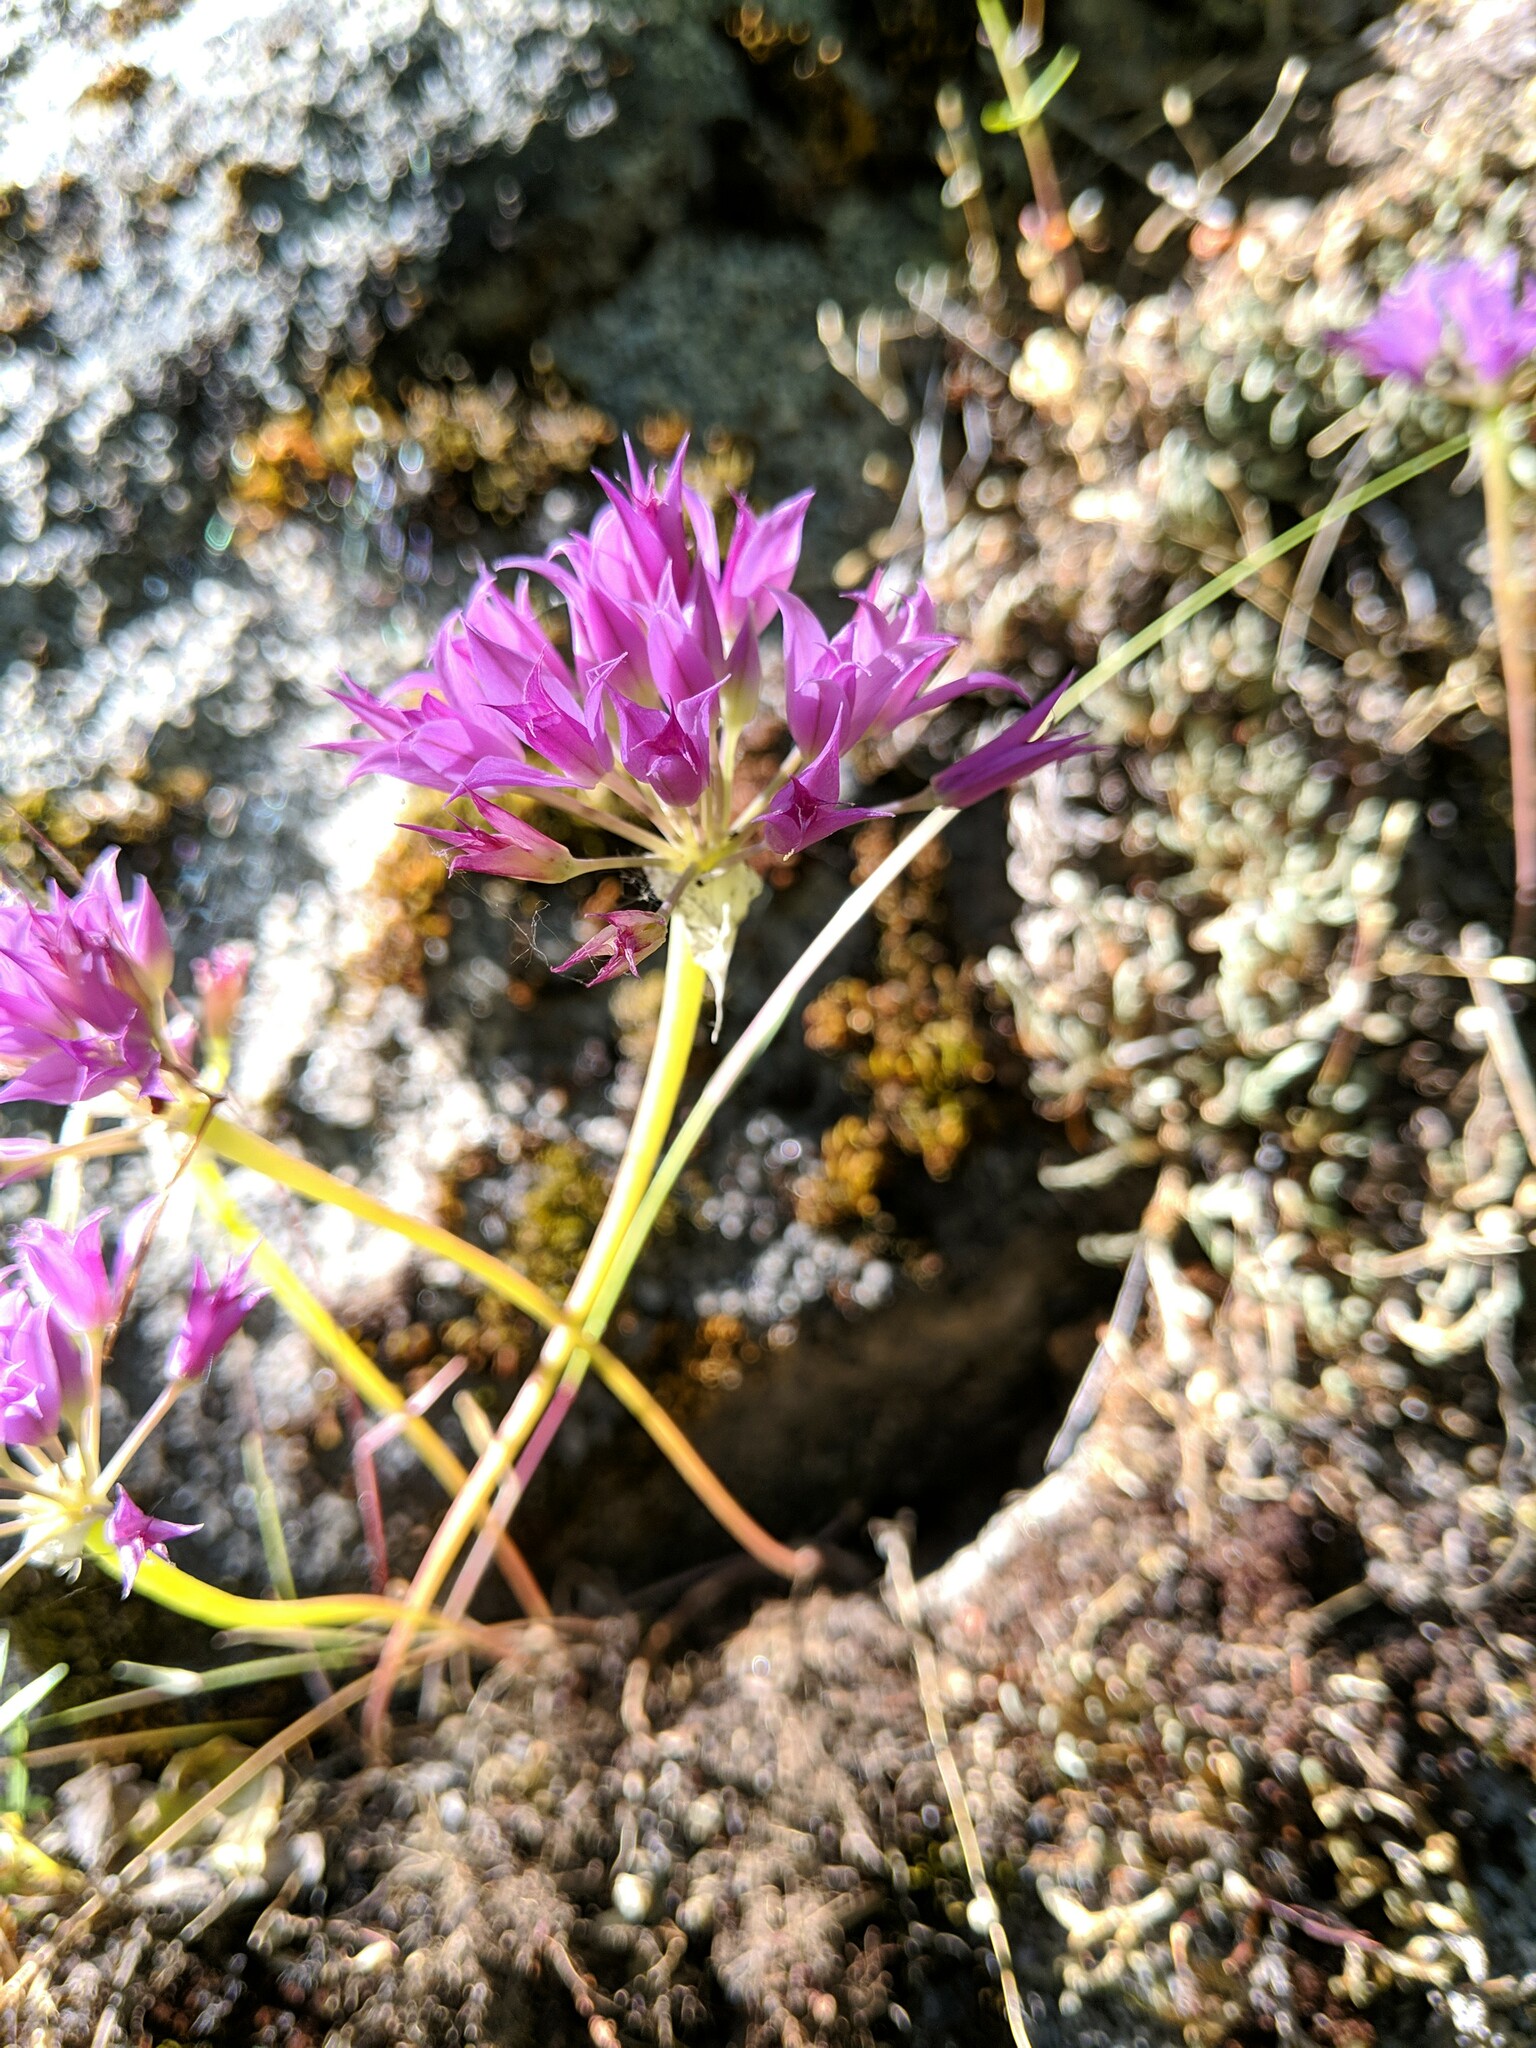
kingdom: Plantae
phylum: Tracheophyta
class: Liliopsida
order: Asparagales
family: Amaryllidaceae
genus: Allium
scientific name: Allium acuminatum
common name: Hooker's onion
